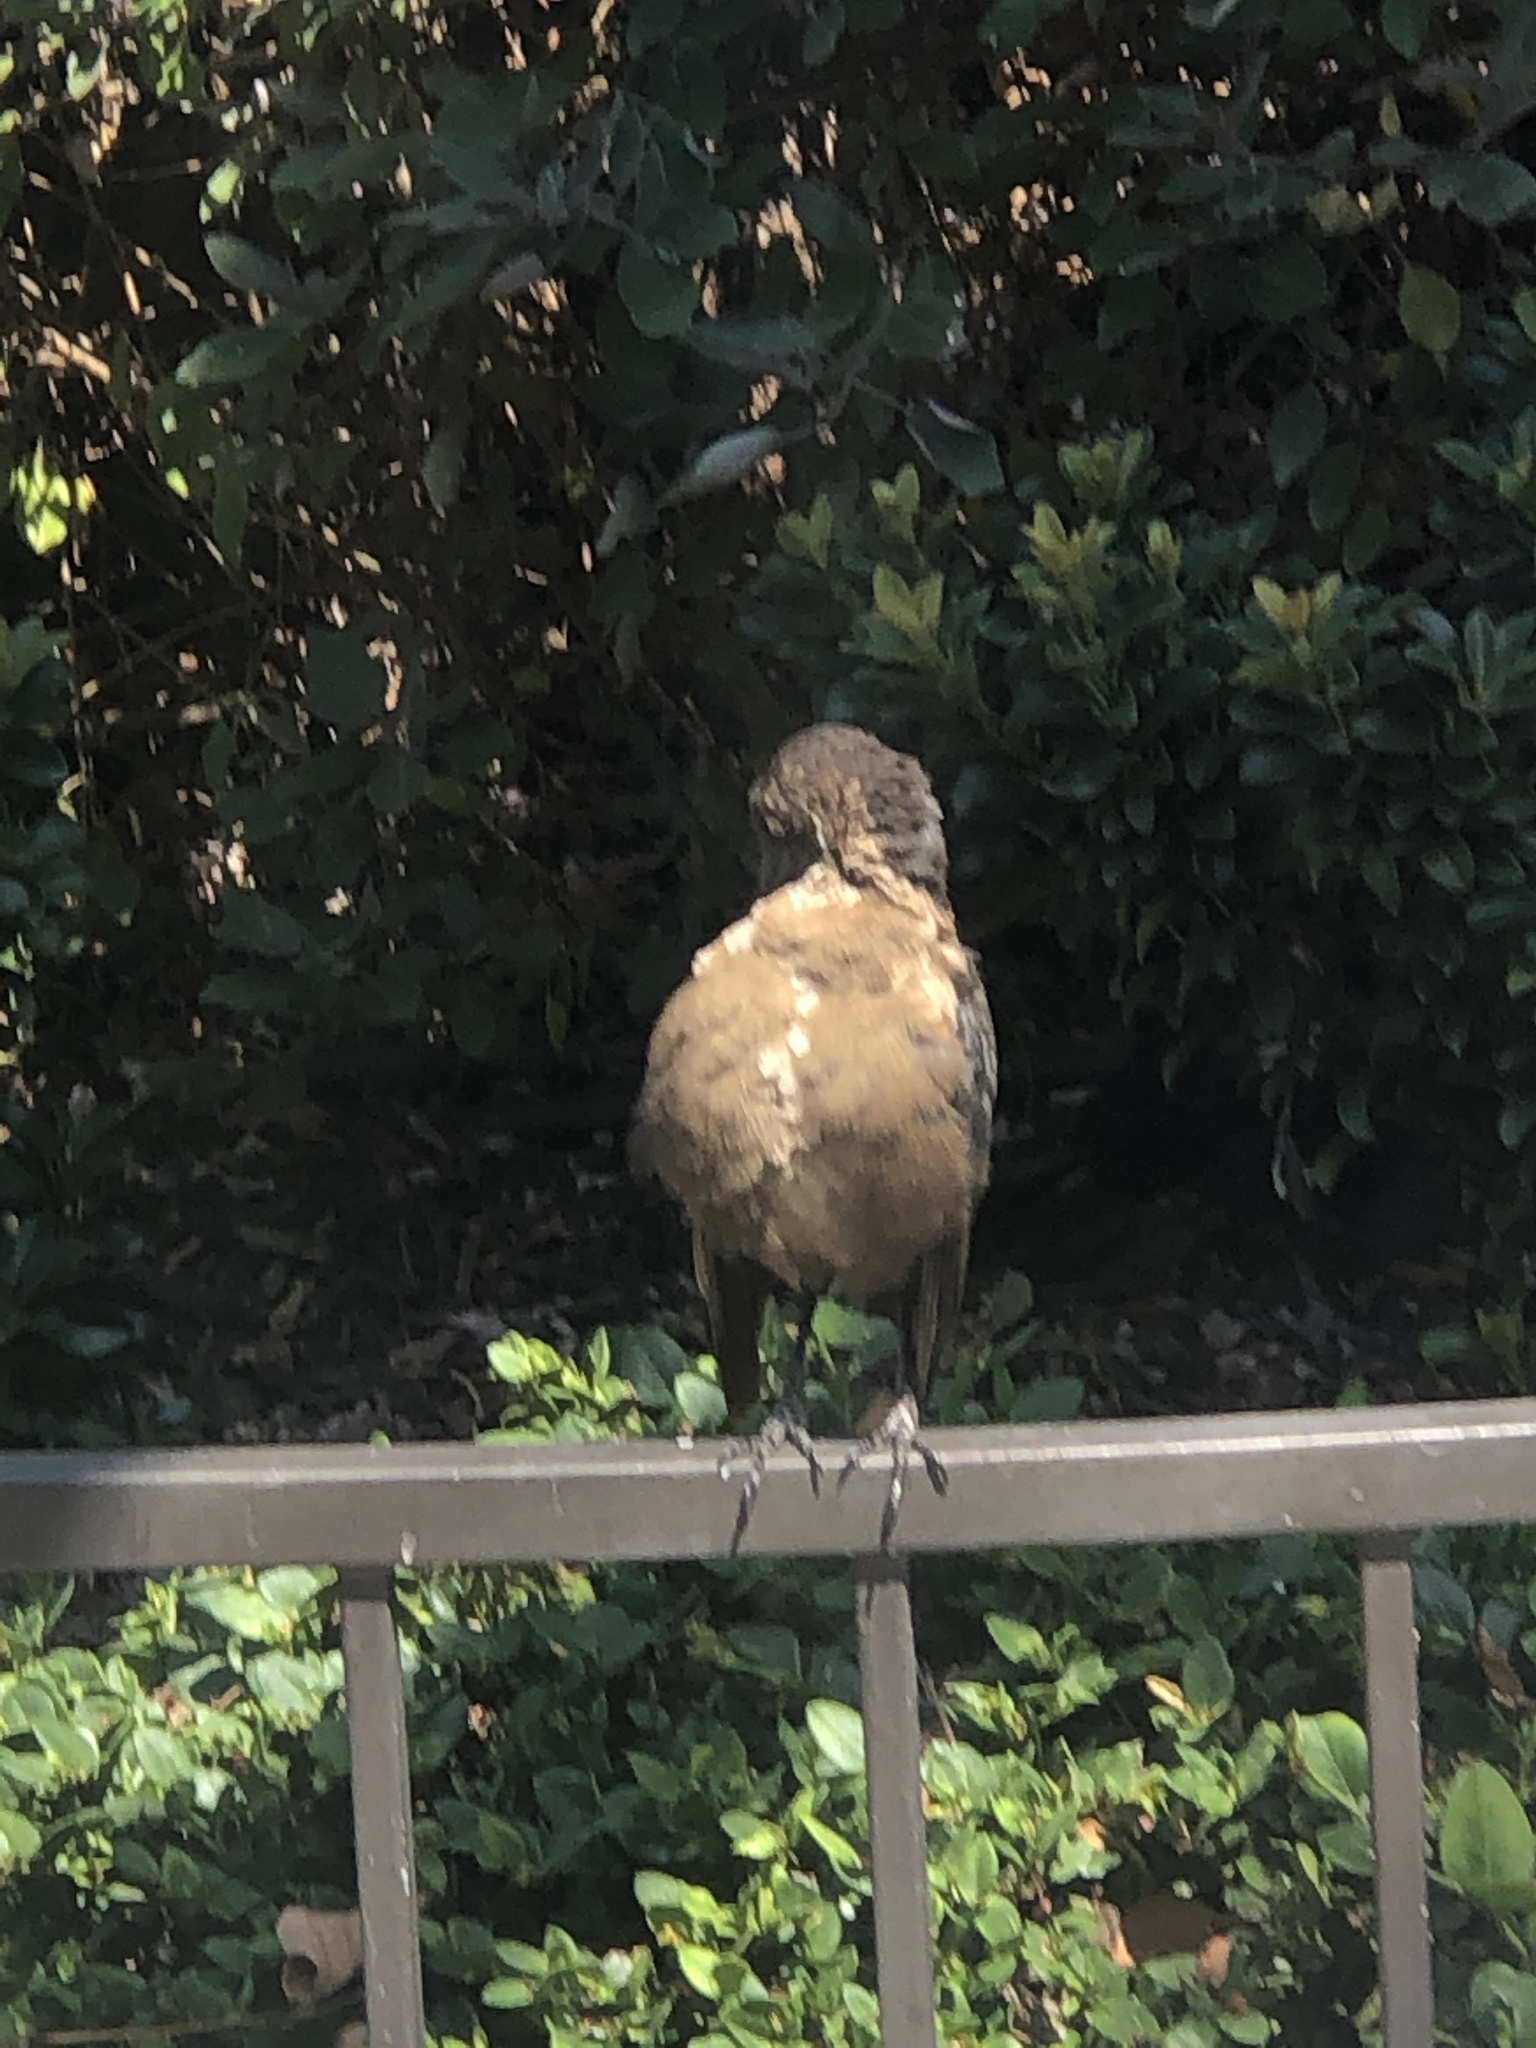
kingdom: Animalia
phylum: Chordata
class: Aves
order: Passeriformes
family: Icteridae
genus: Quiscalus
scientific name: Quiscalus mexicanus
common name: Great-tailed grackle
